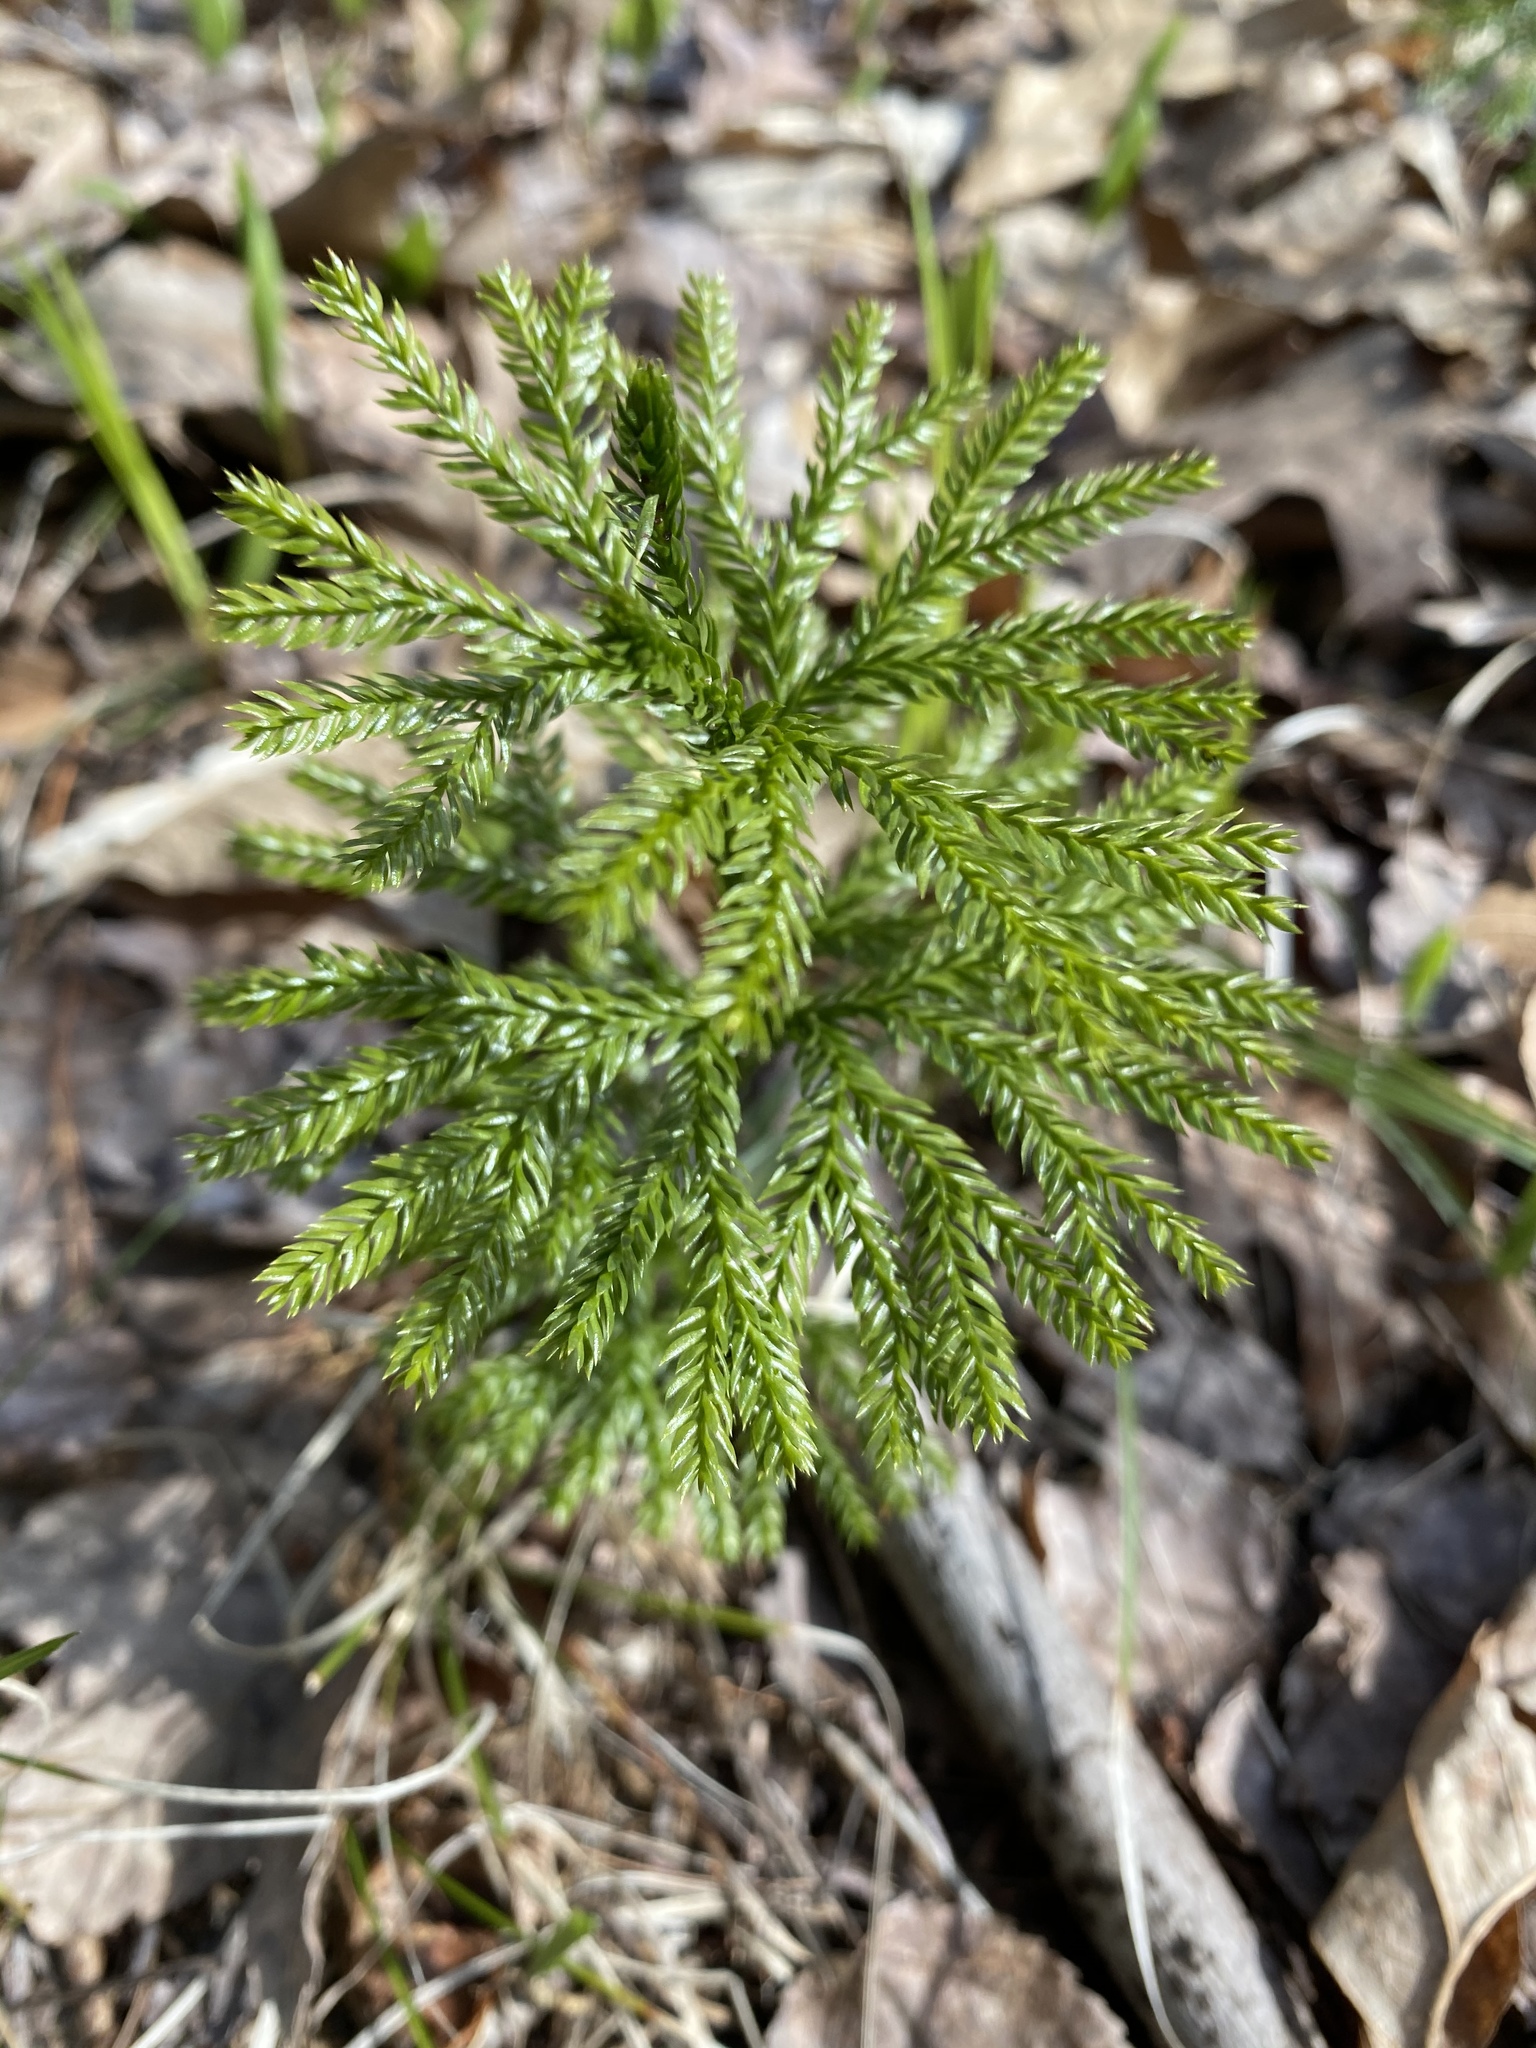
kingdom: Plantae
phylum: Tracheophyta
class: Lycopodiopsida
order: Lycopodiales
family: Lycopodiaceae
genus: Dendrolycopodium
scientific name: Dendrolycopodium dendroideum
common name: Northern tree-clubmoss
